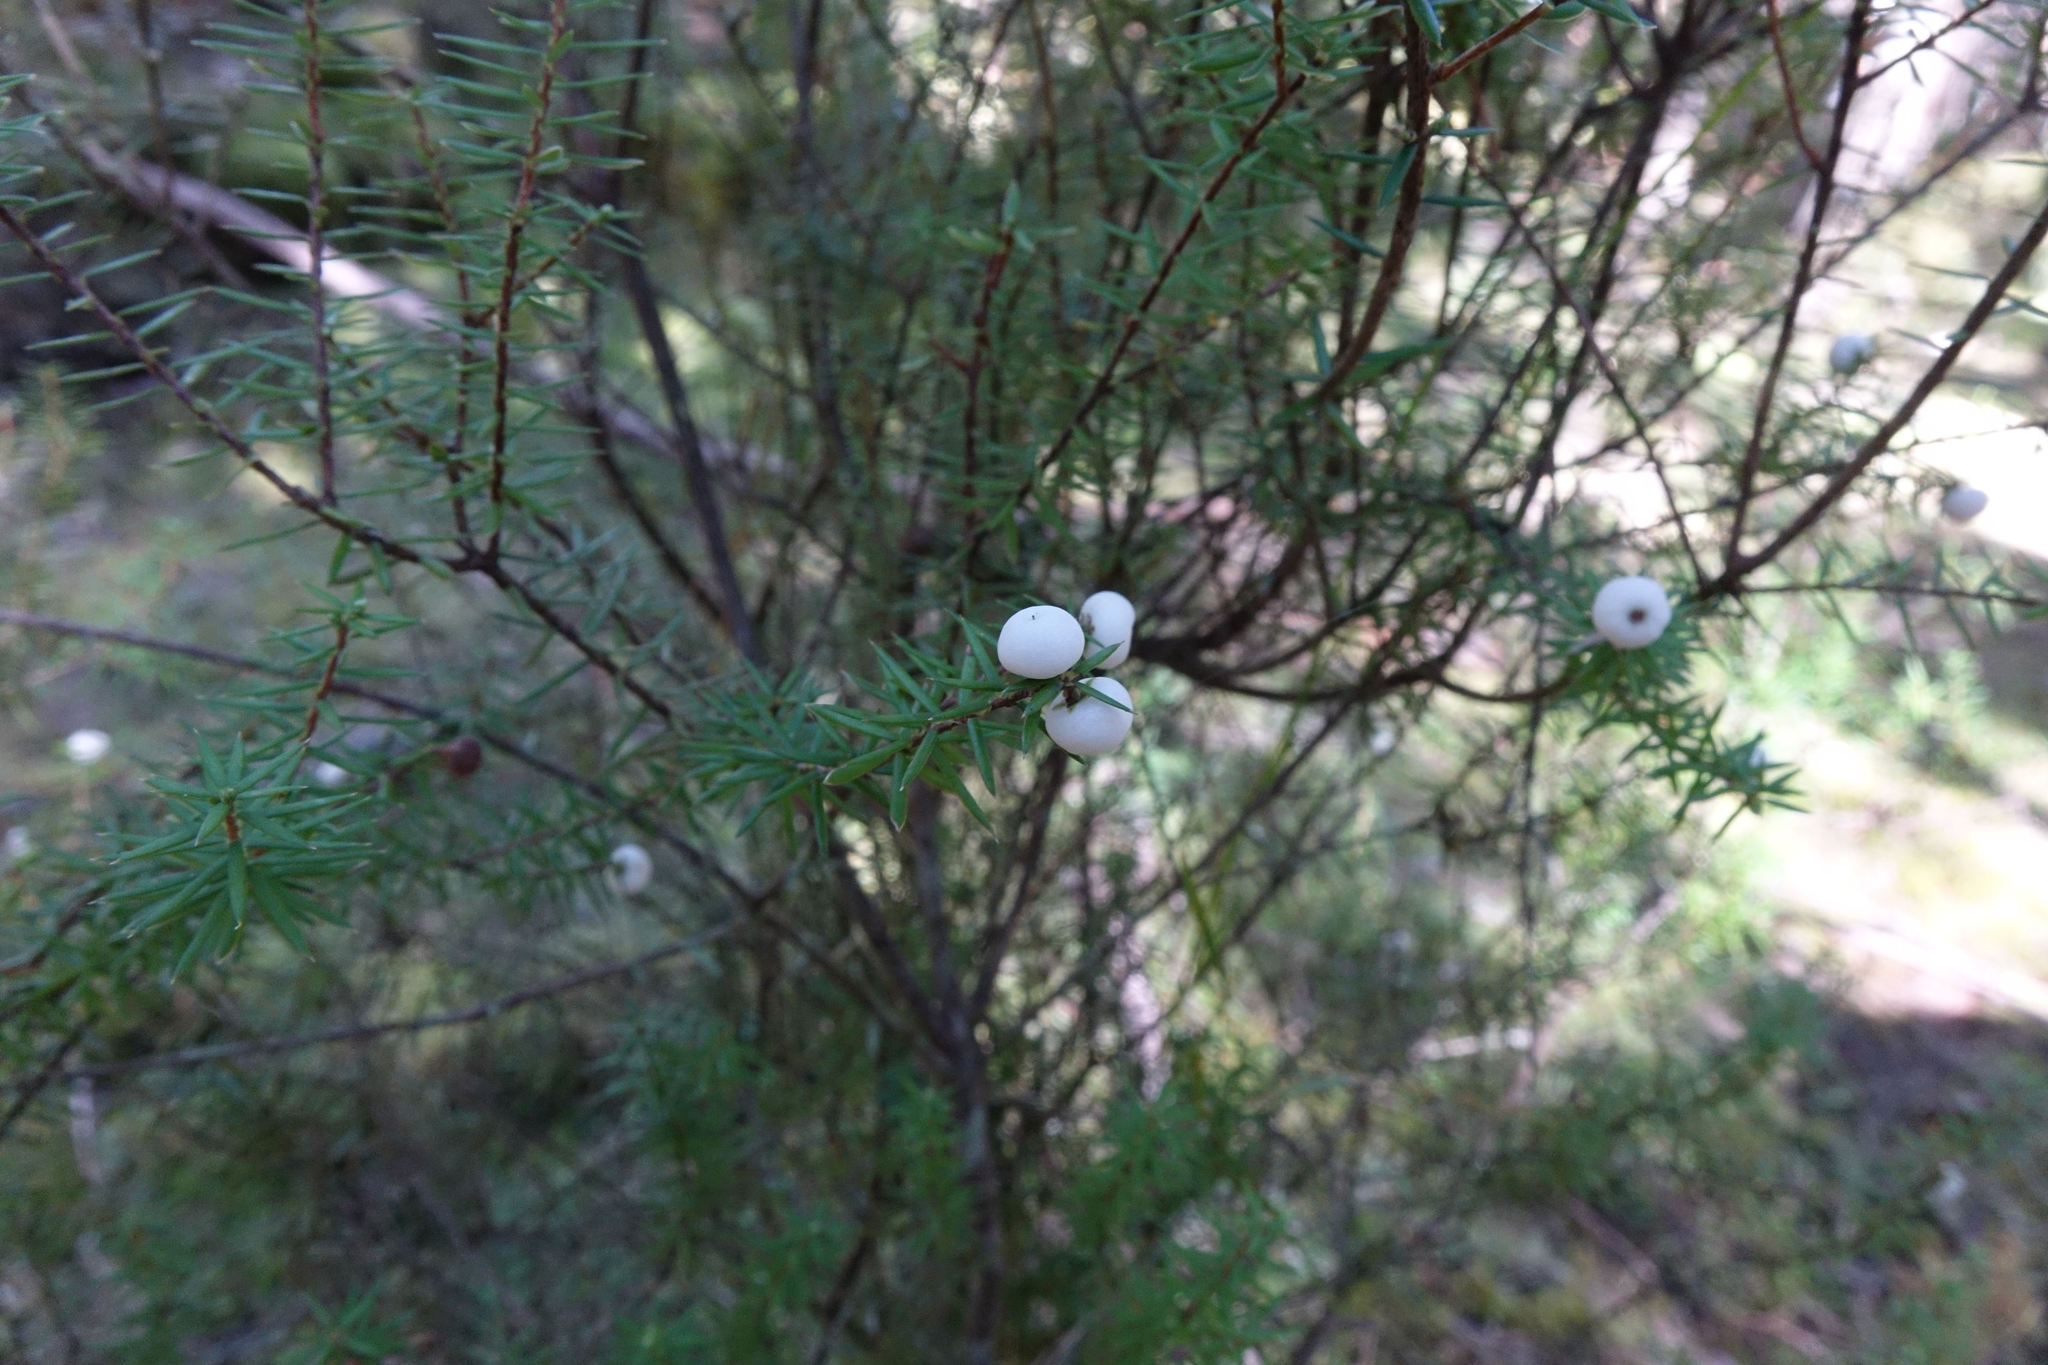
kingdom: Plantae
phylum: Tracheophyta
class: Magnoliopsida
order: Ericales
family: Ericaceae
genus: Leptecophylla
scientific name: Leptecophylla juniperina
